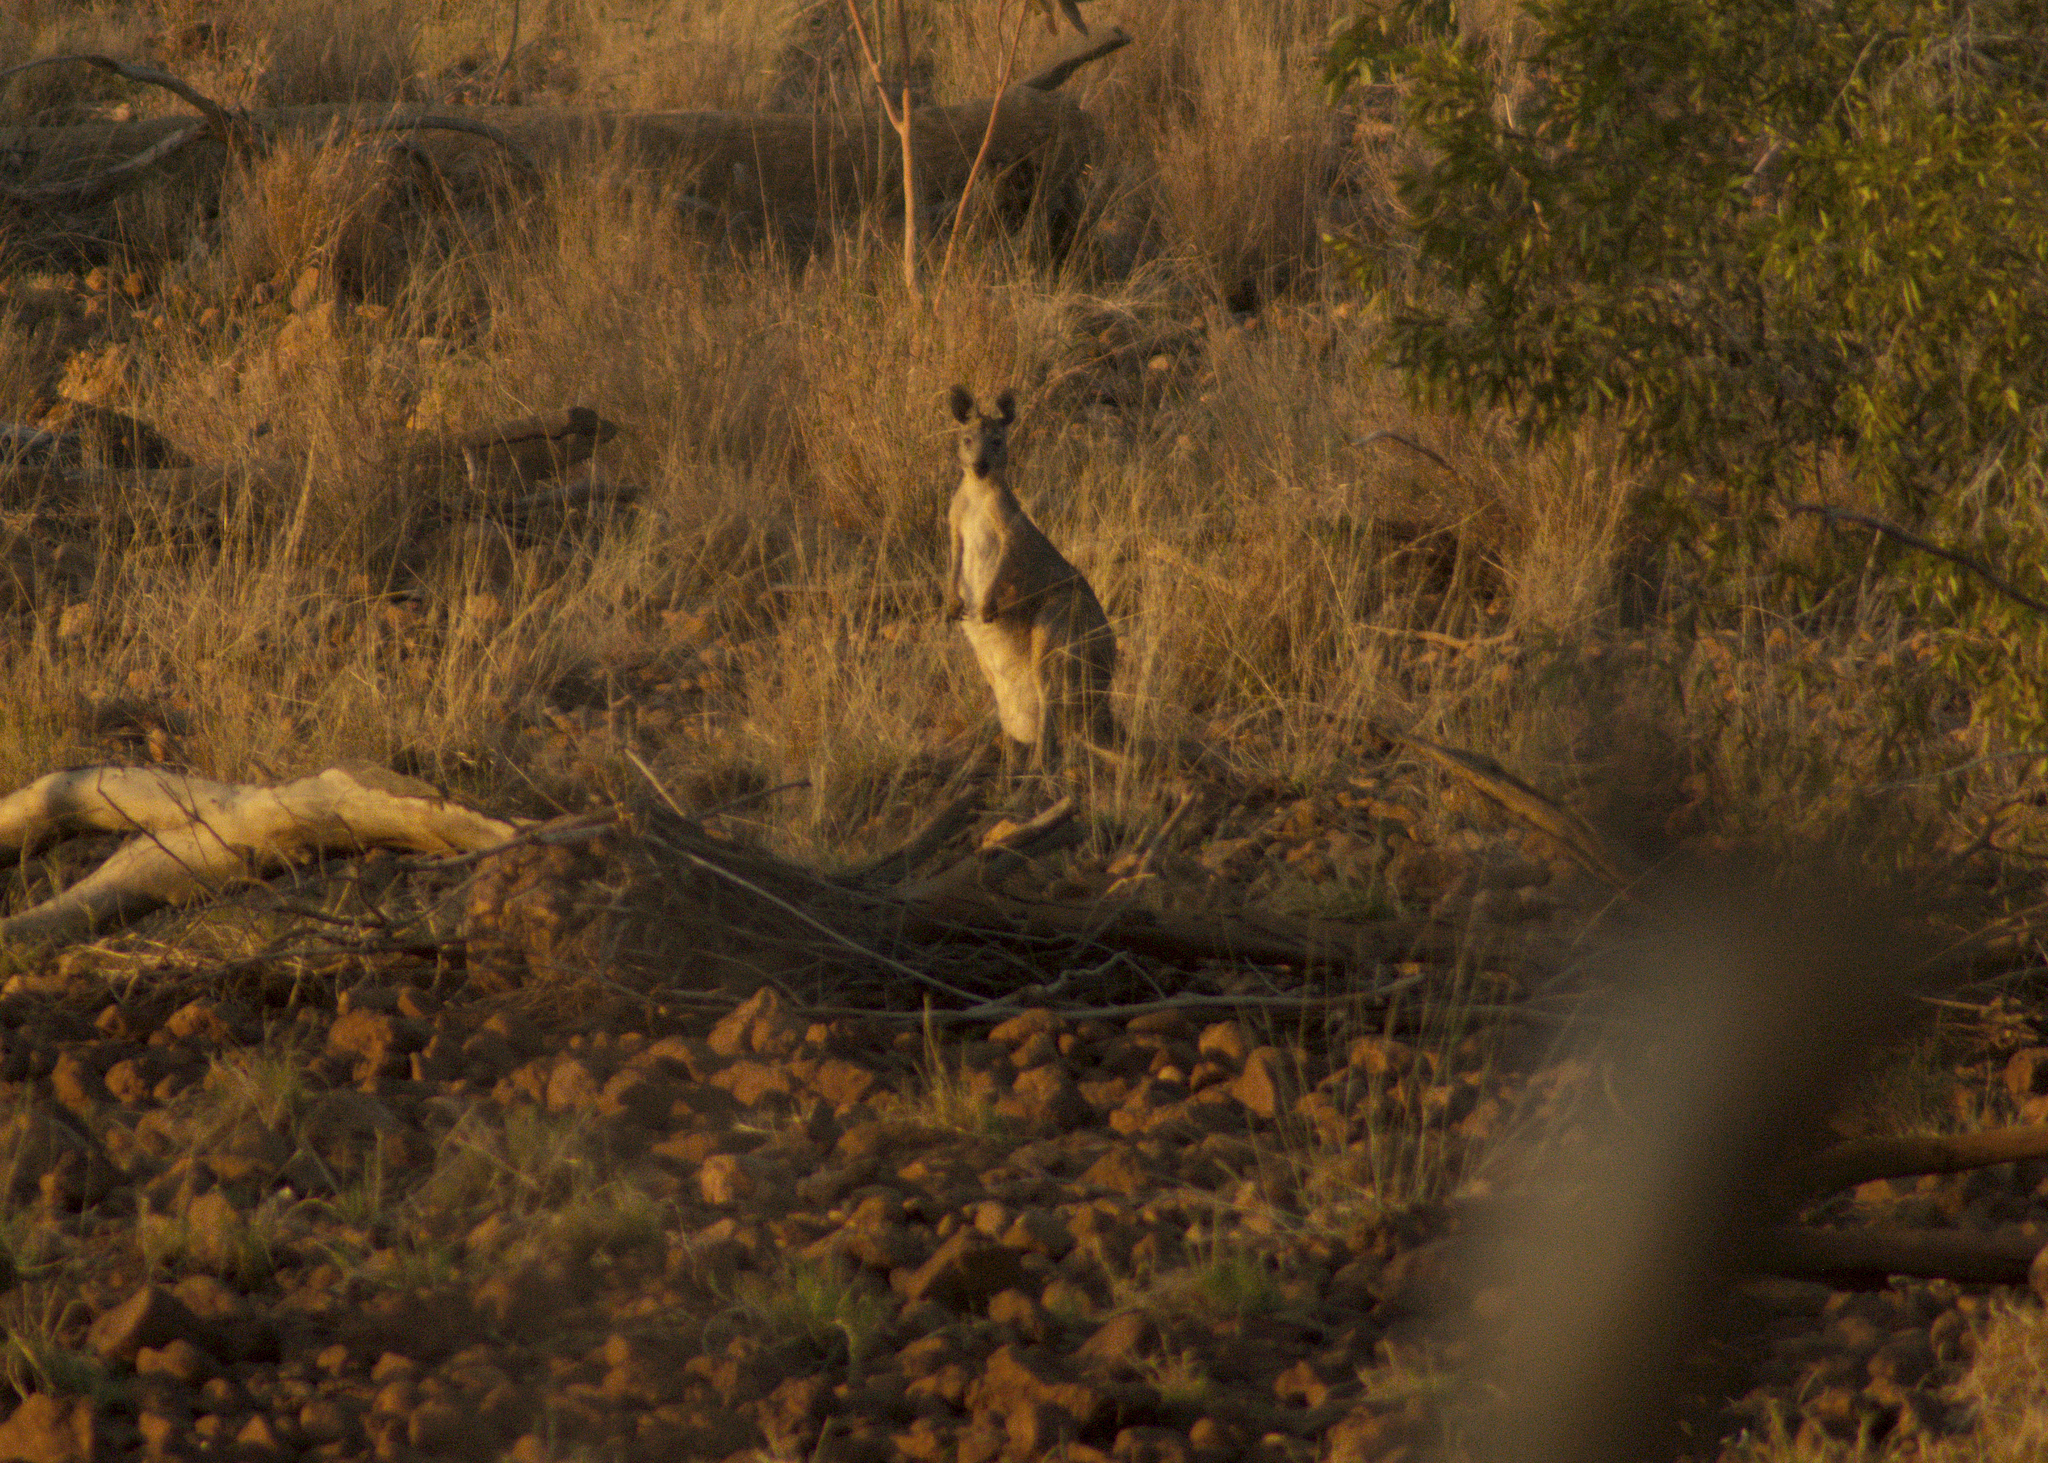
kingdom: Animalia
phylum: Chordata
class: Mammalia
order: Diprotodontia
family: Macropodidae
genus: Macropus
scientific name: Macropus robustus
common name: Eastern wallaroo
